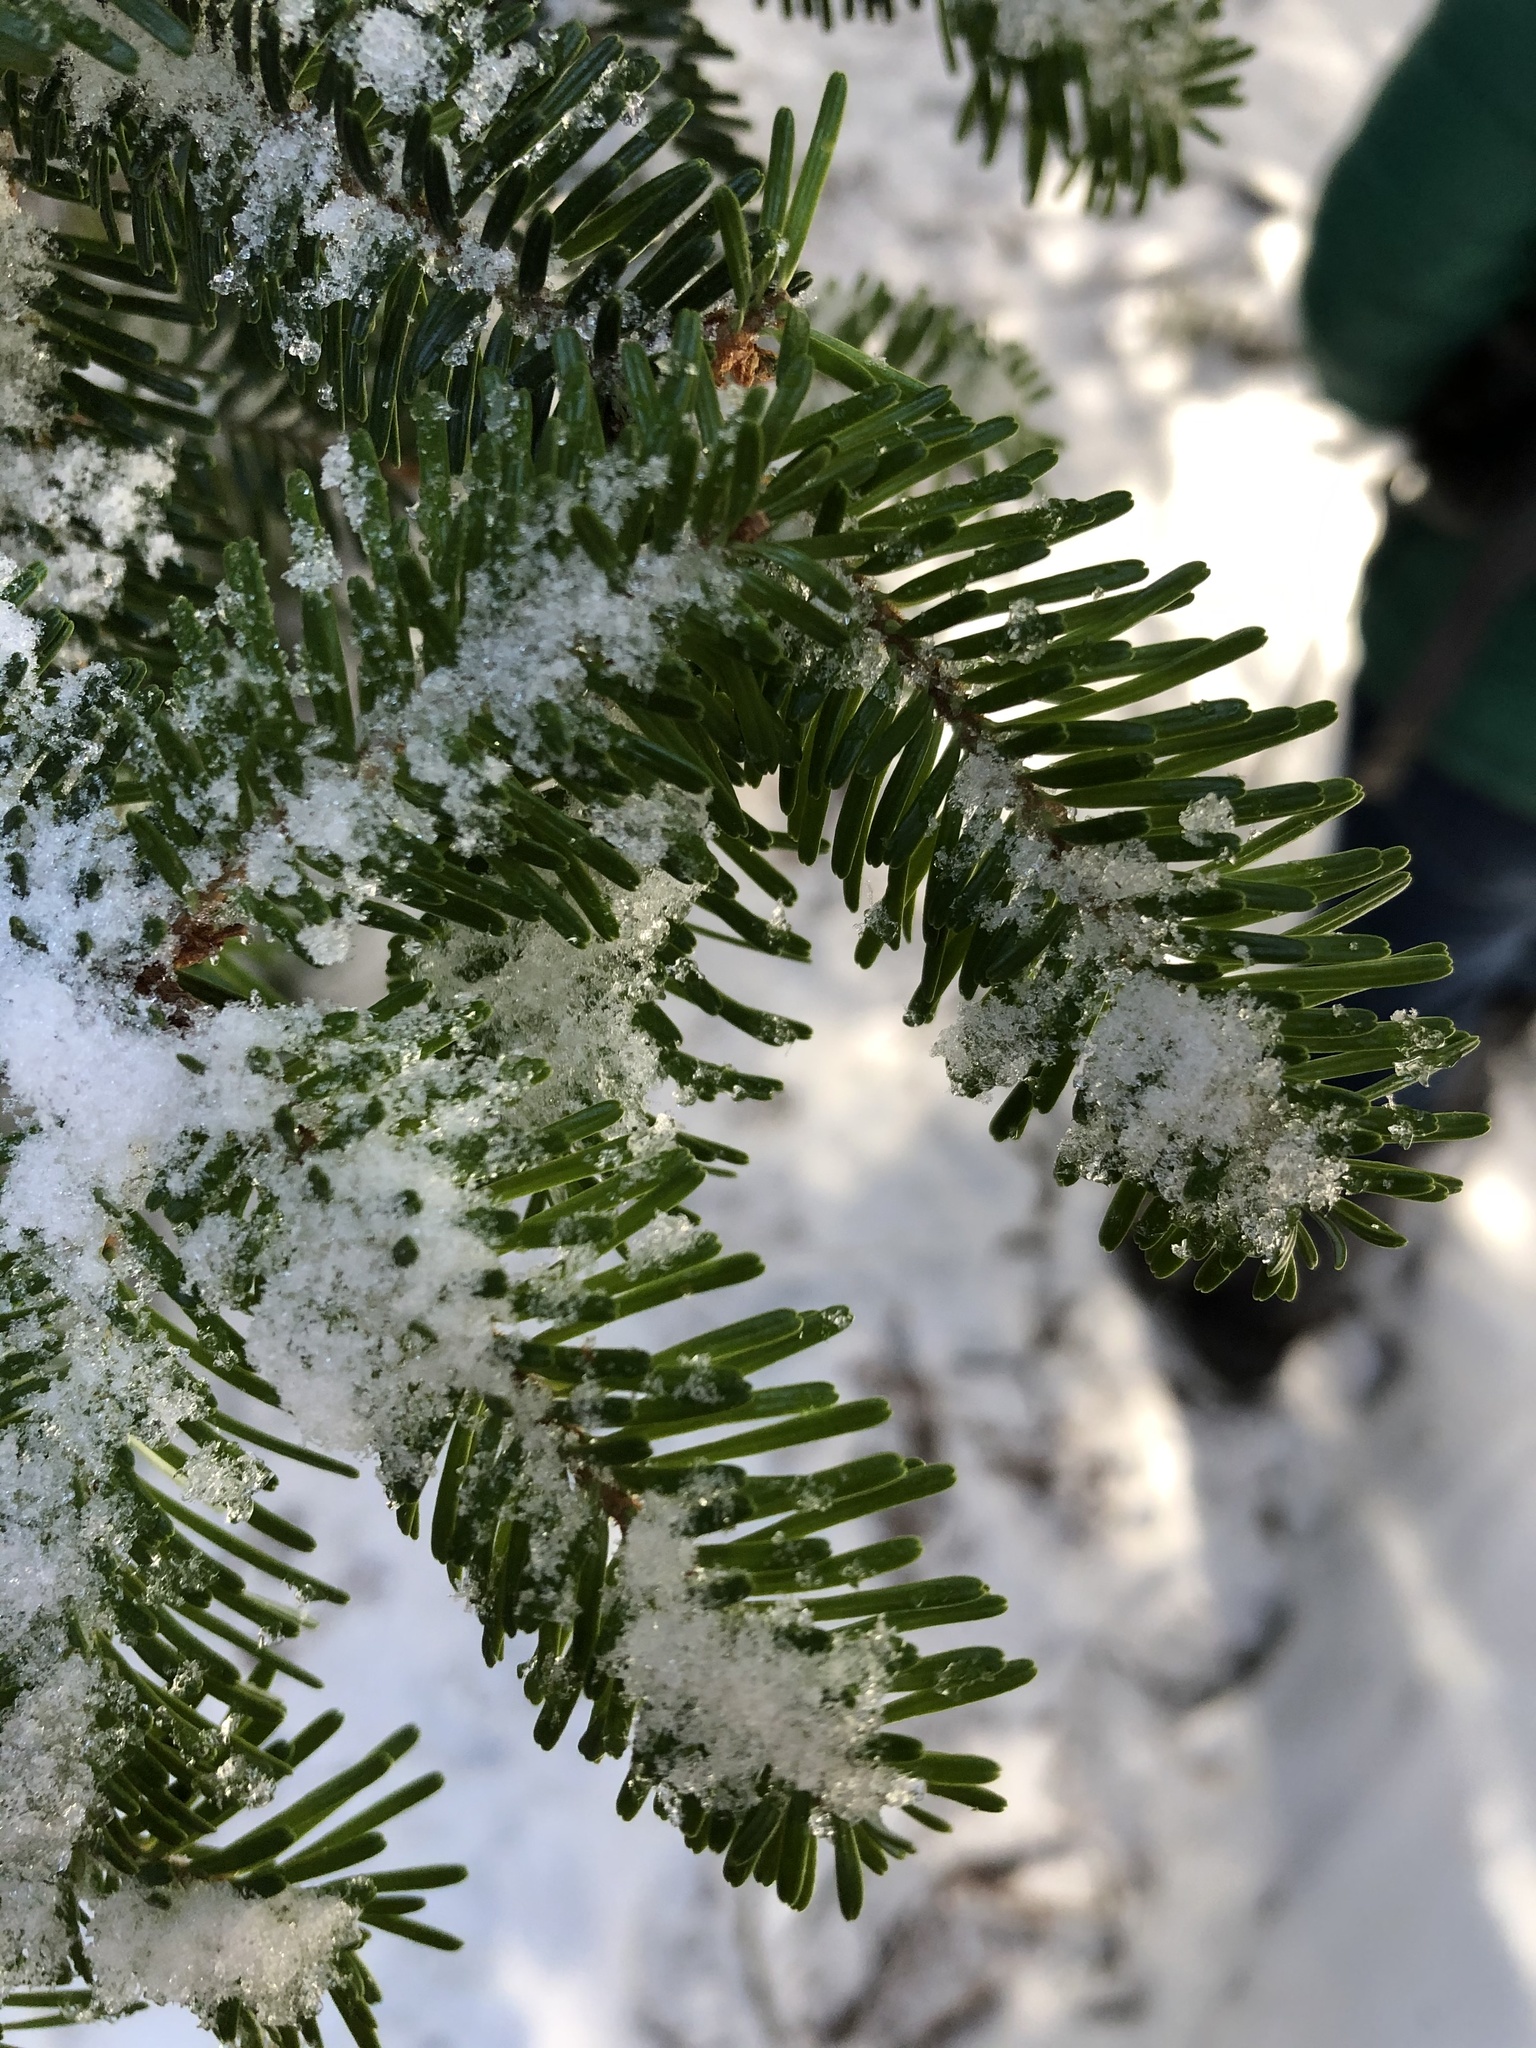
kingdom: Plantae
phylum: Tracheophyta
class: Pinopsida
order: Pinales
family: Pinaceae
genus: Abies
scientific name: Abies fraseri
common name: Fraser fir
